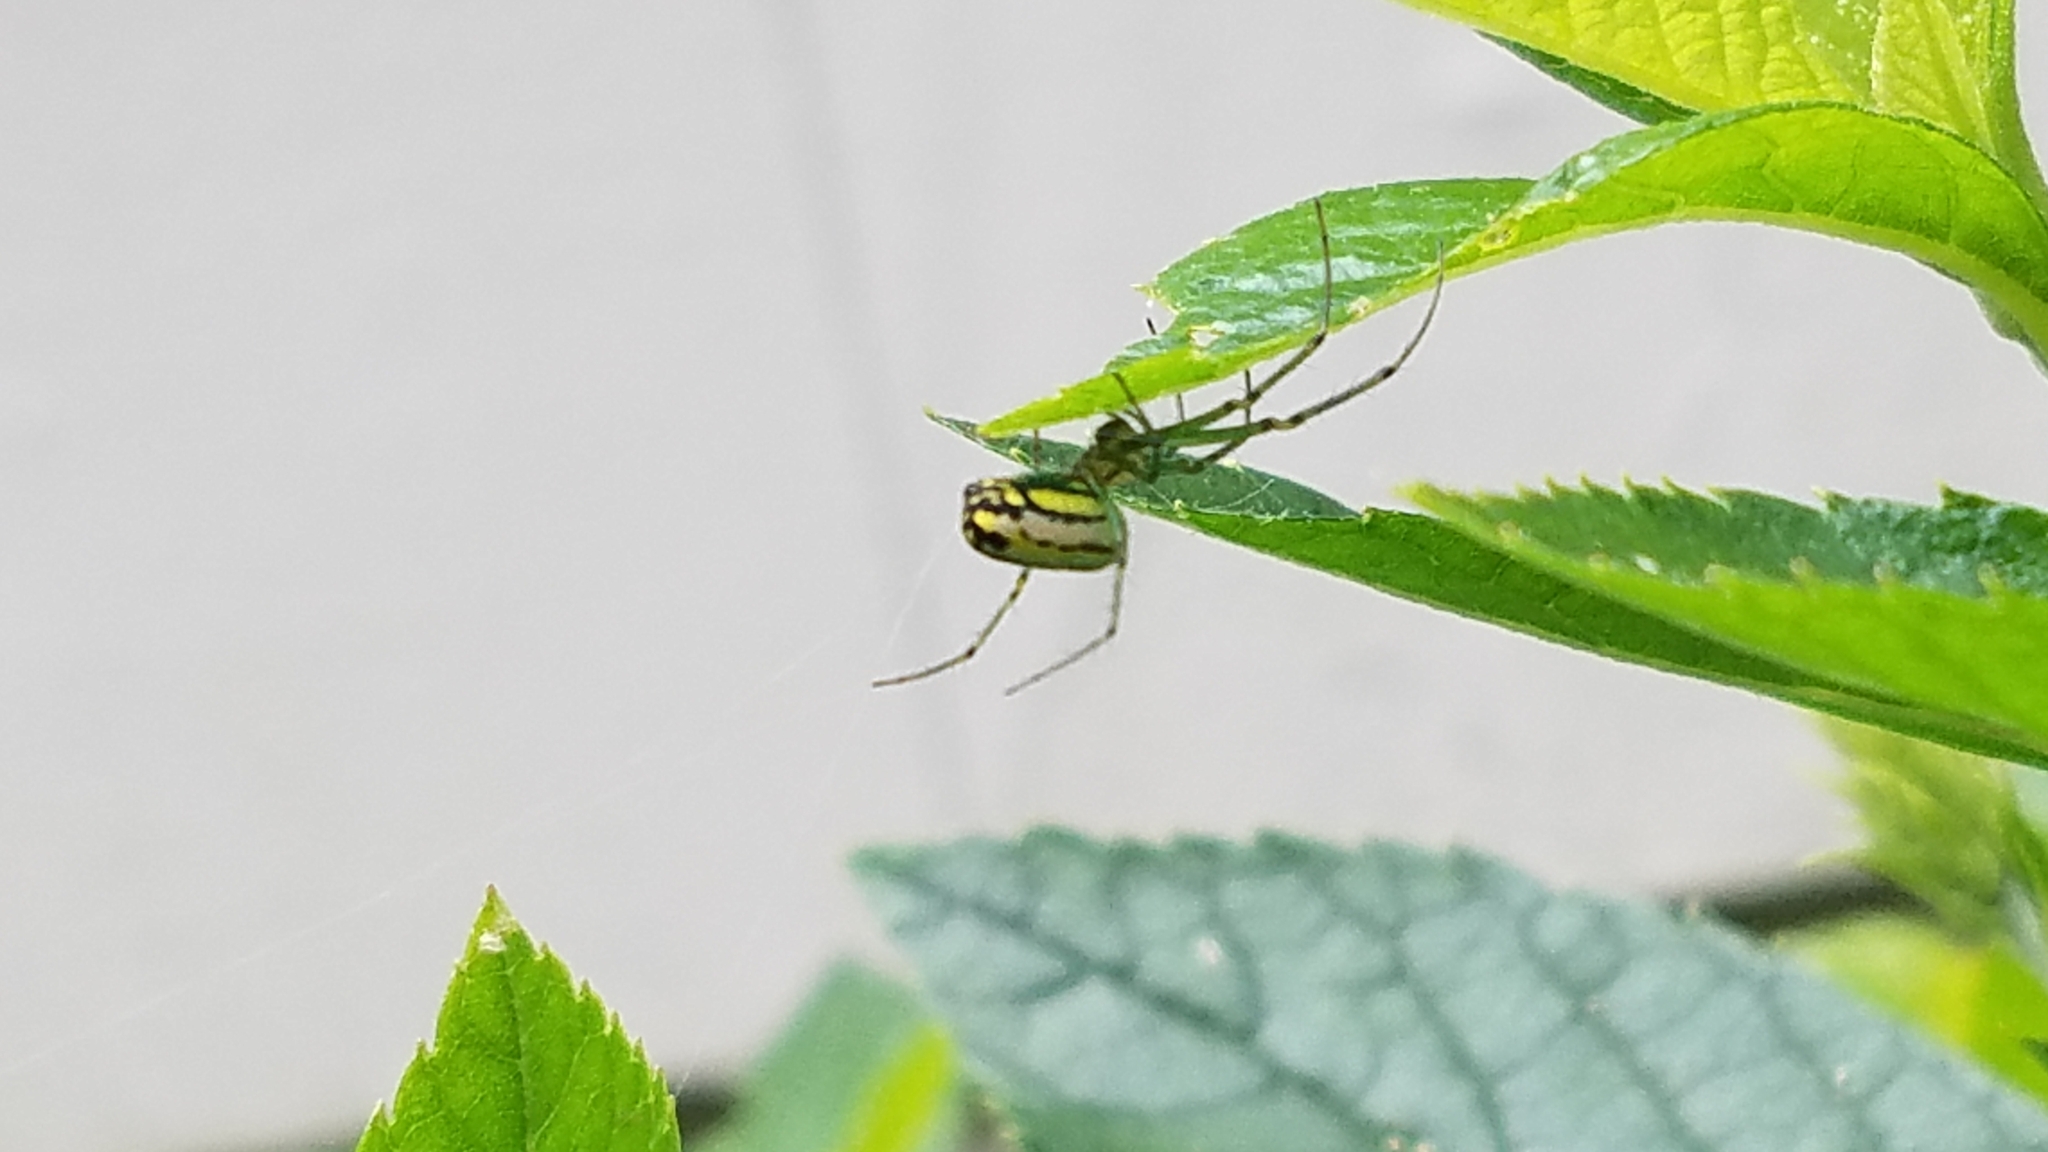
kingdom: Animalia
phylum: Arthropoda
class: Arachnida
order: Araneae
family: Tetragnathidae
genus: Leucauge
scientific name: Leucauge venusta
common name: Longjawed orb weavers
